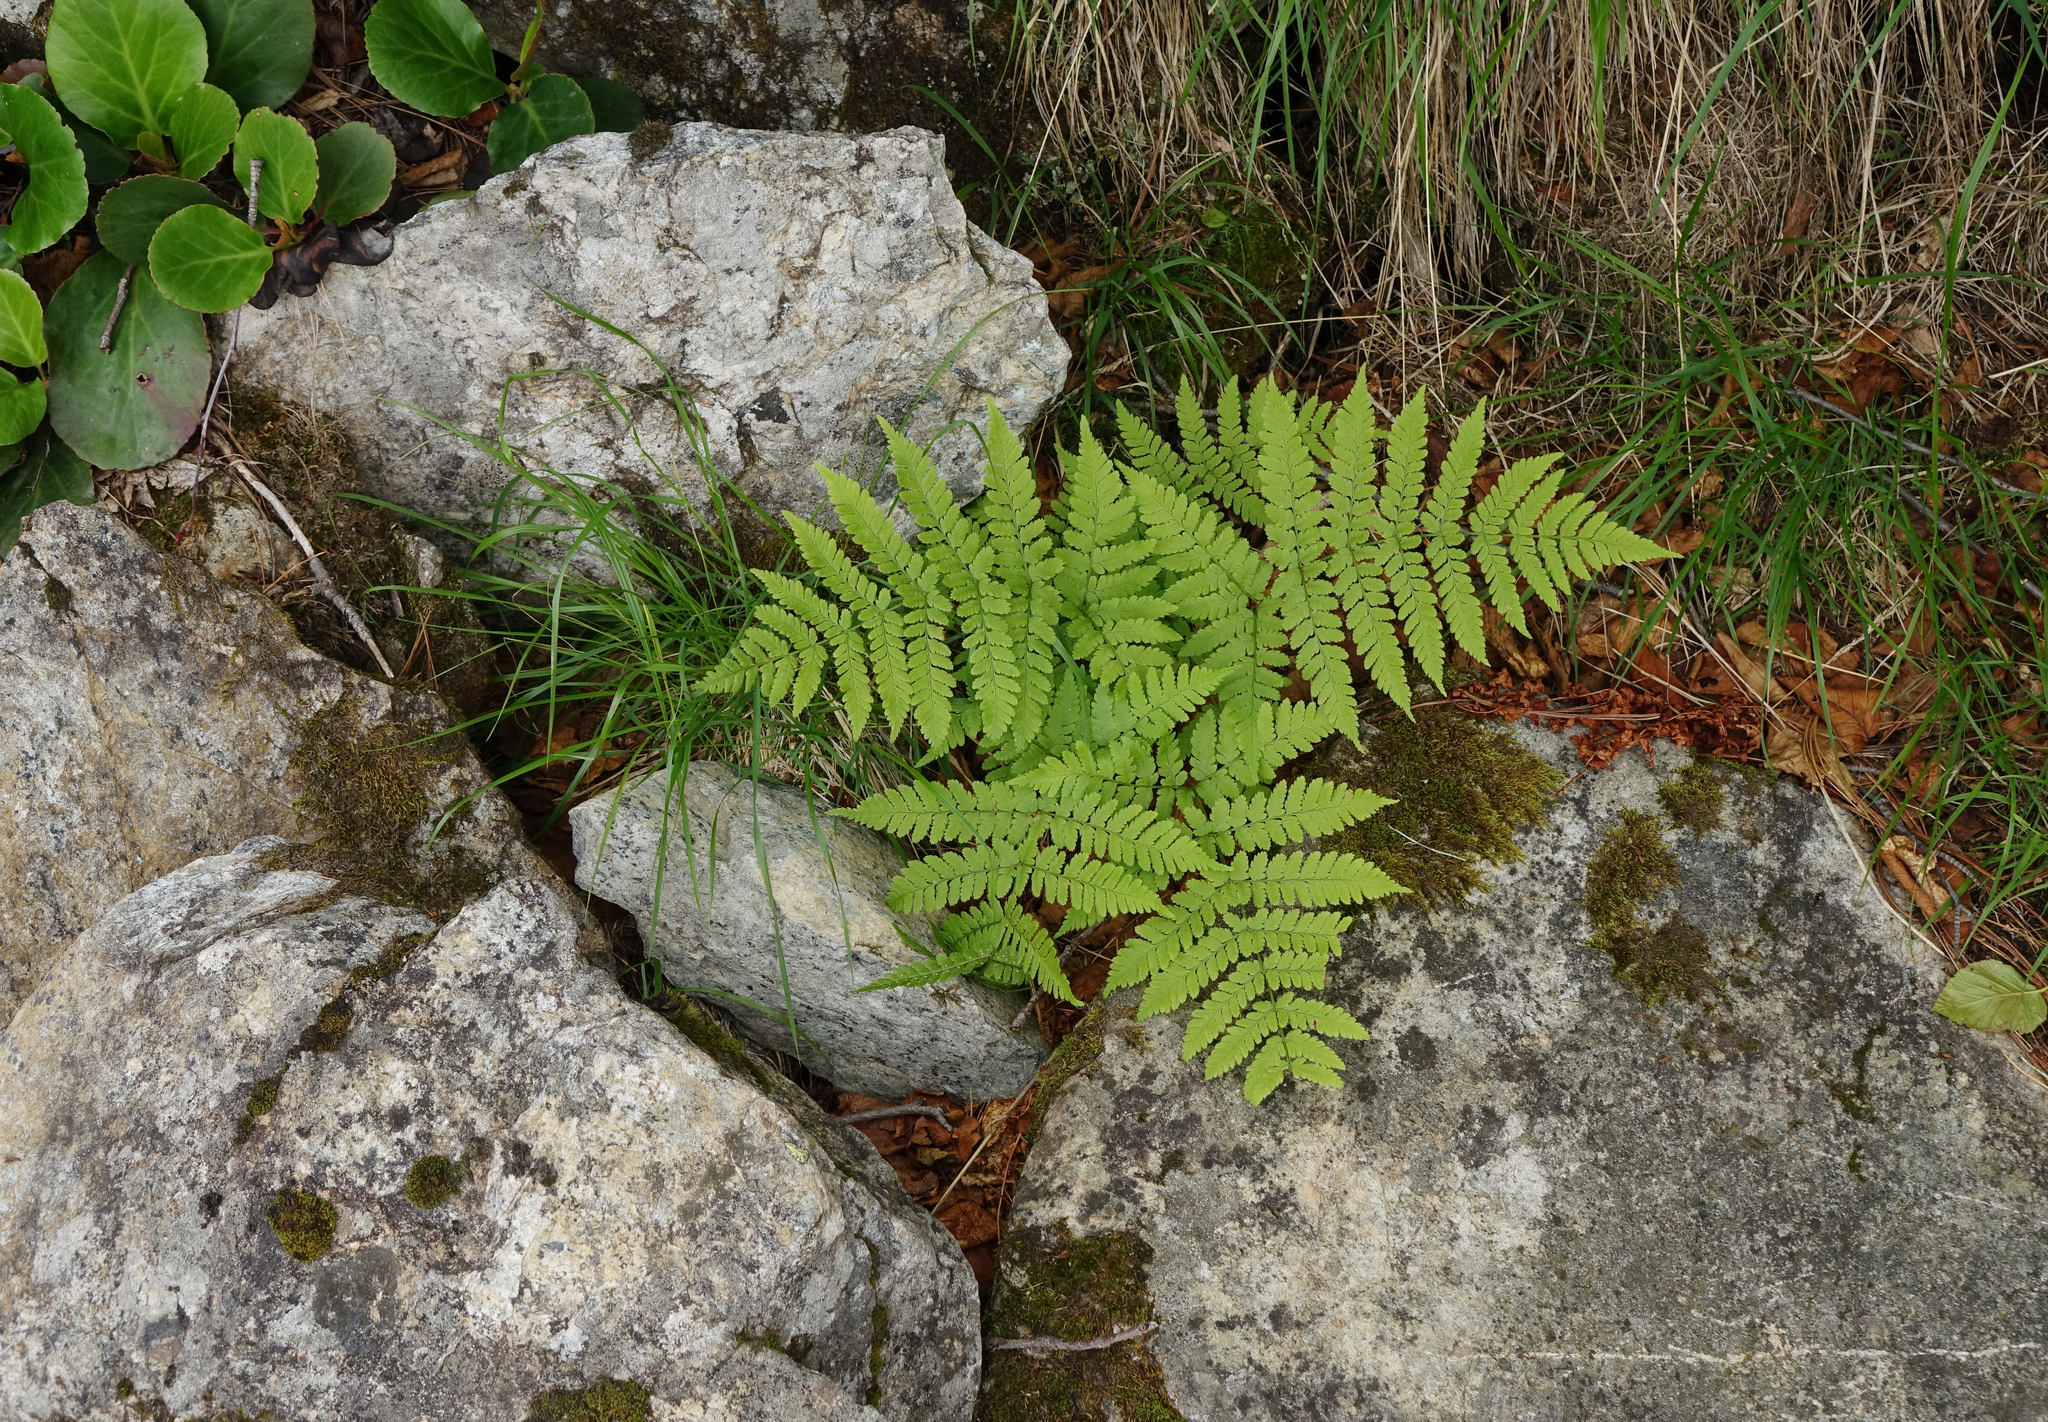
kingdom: Plantae
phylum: Tracheophyta
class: Polypodiopsida
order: Polypodiales
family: Dryopteridaceae
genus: Dryopteris
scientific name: Dryopteris expansa
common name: Northern buckler fern
